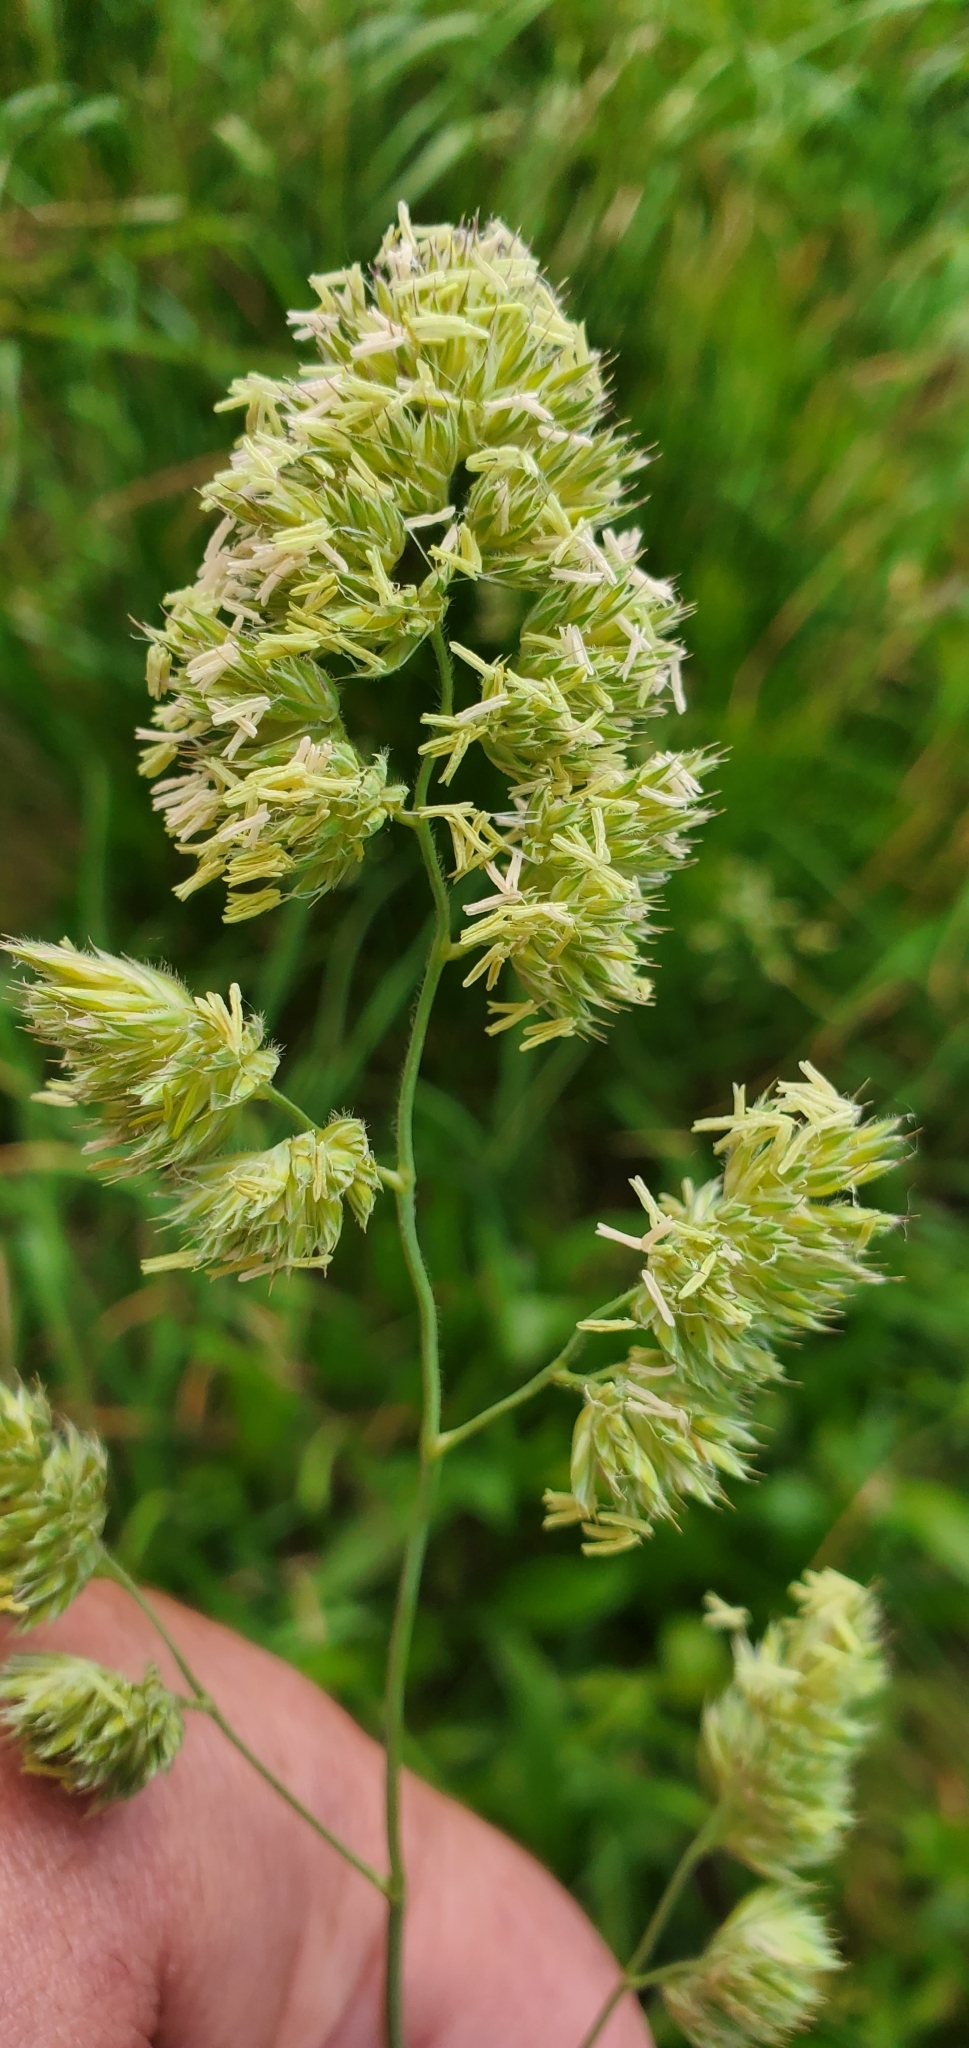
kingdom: Plantae
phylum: Tracheophyta
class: Liliopsida
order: Poales
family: Poaceae
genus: Dactylis
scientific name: Dactylis glomerata
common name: Orchardgrass
